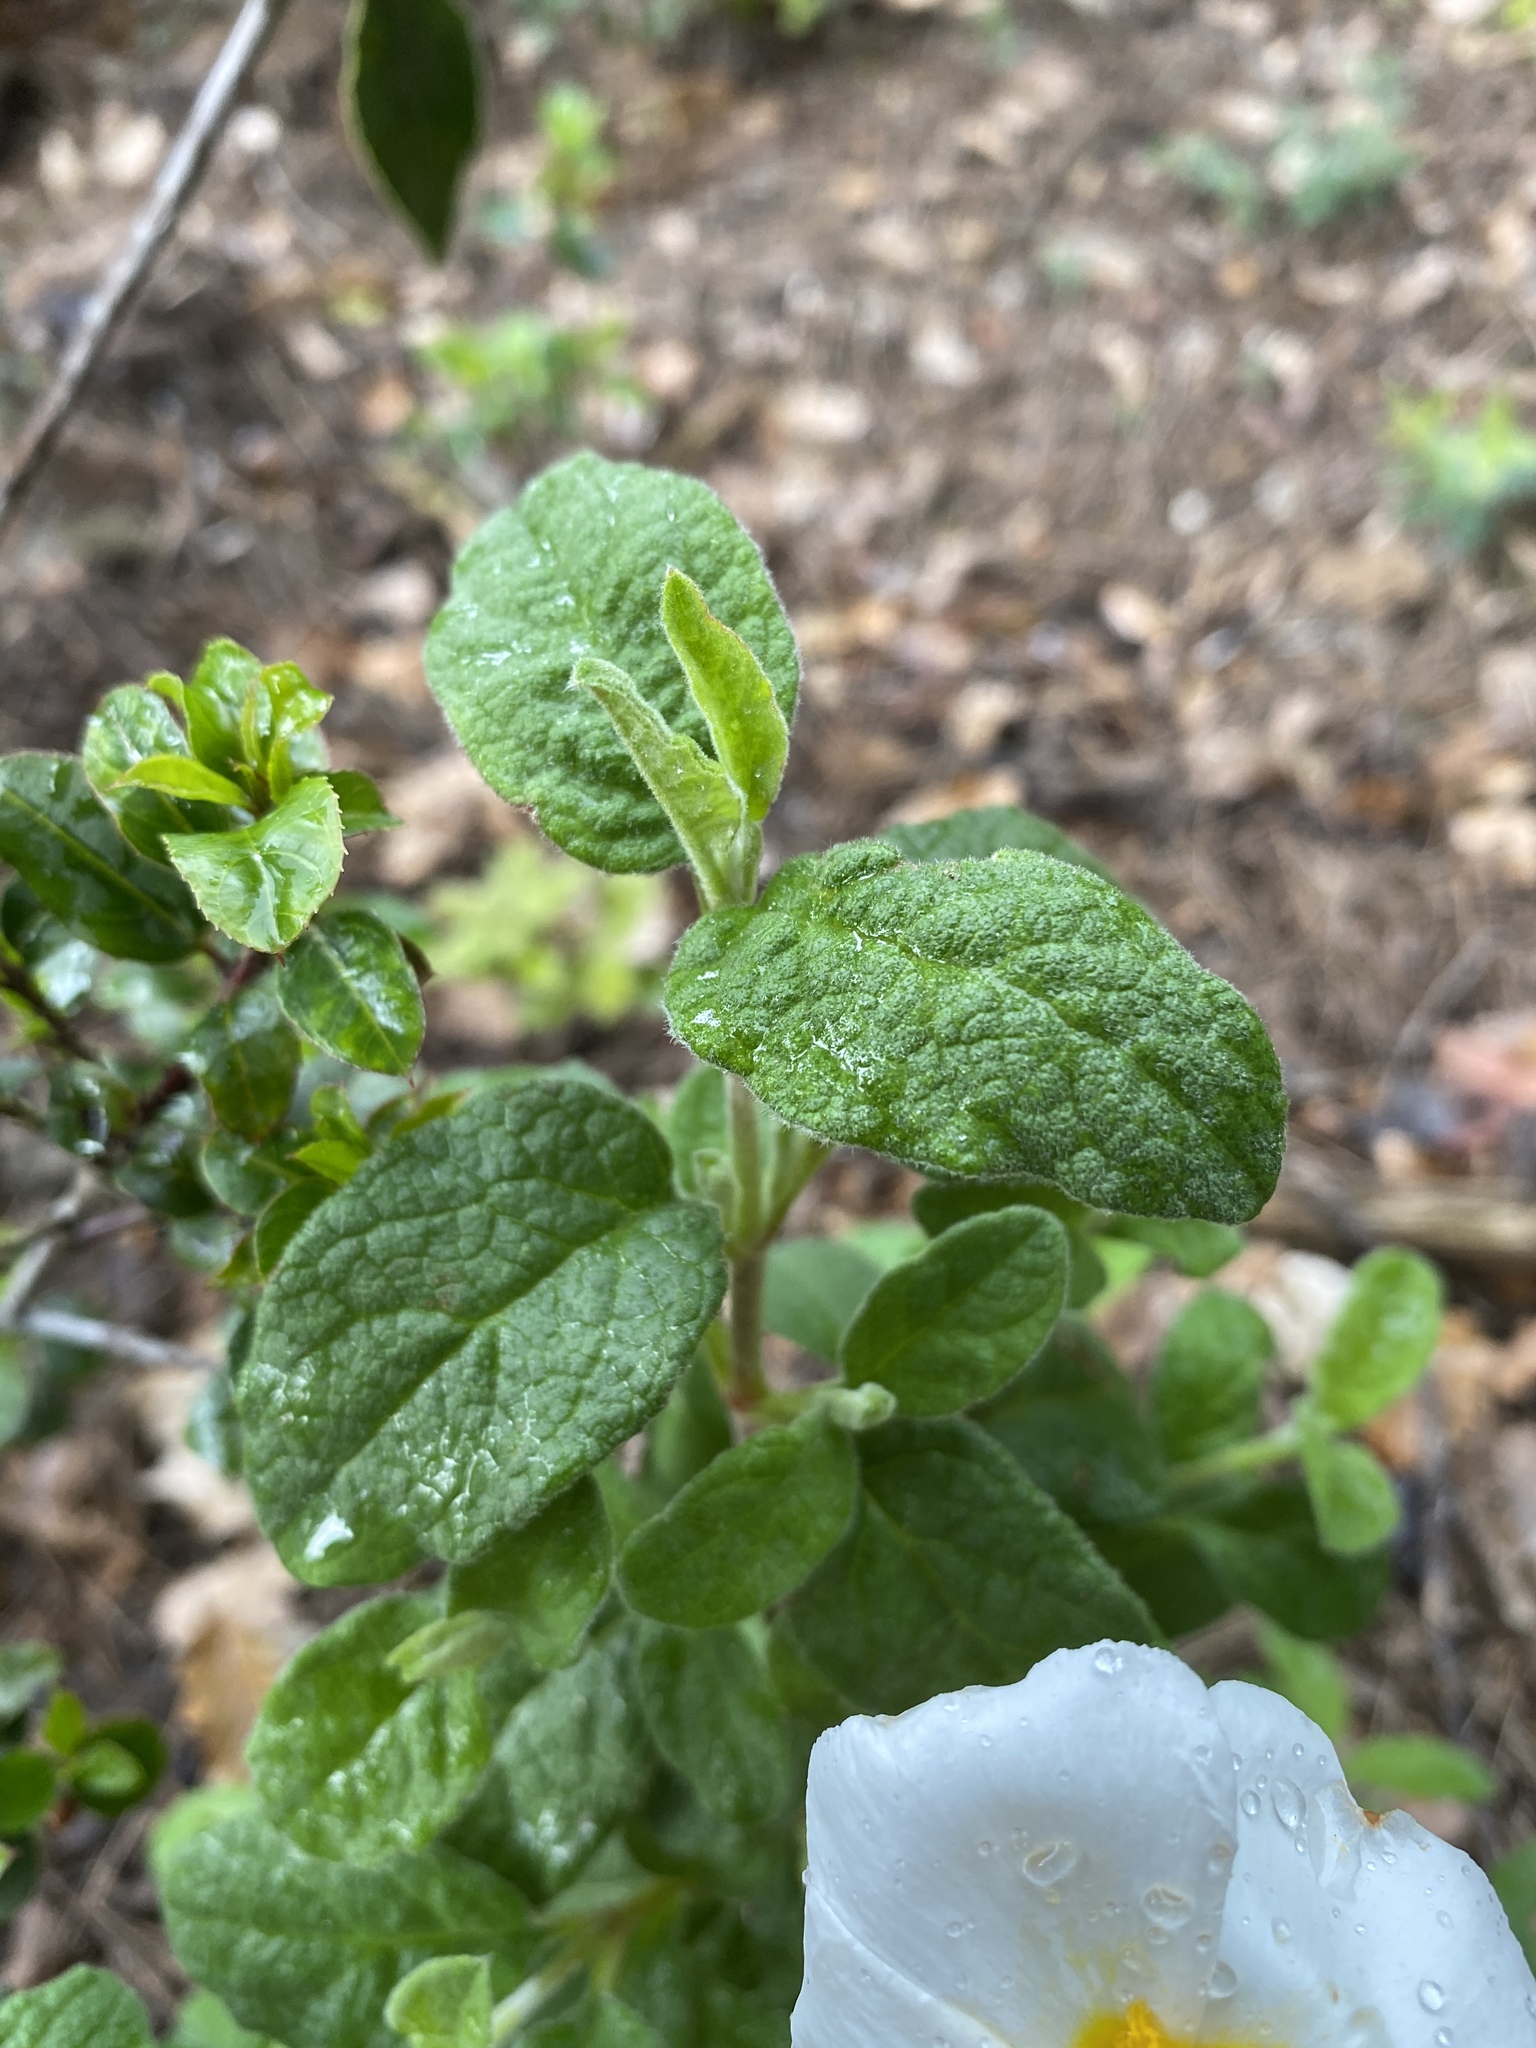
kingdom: Plantae
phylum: Tracheophyta
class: Magnoliopsida
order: Malvales
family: Cistaceae
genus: Cistus
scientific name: Cistus salviifolius
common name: Salvia cistus
